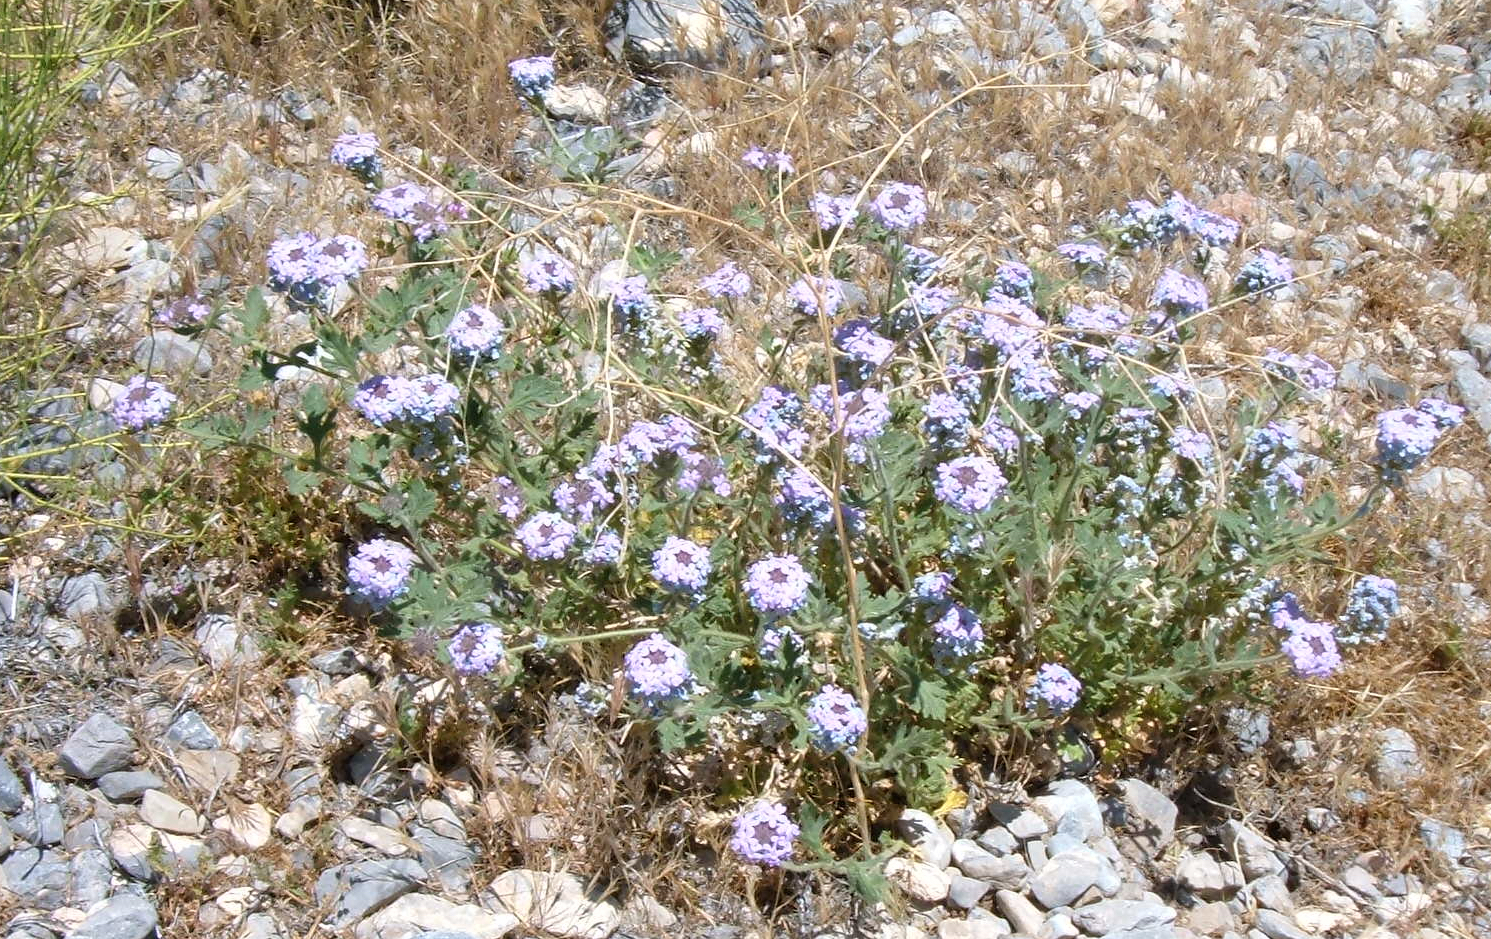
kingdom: Plantae
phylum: Tracheophyta
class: Magnoliopsida
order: Lamiales
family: Verbenaceae
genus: Verbena
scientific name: Verbena gooddingii
